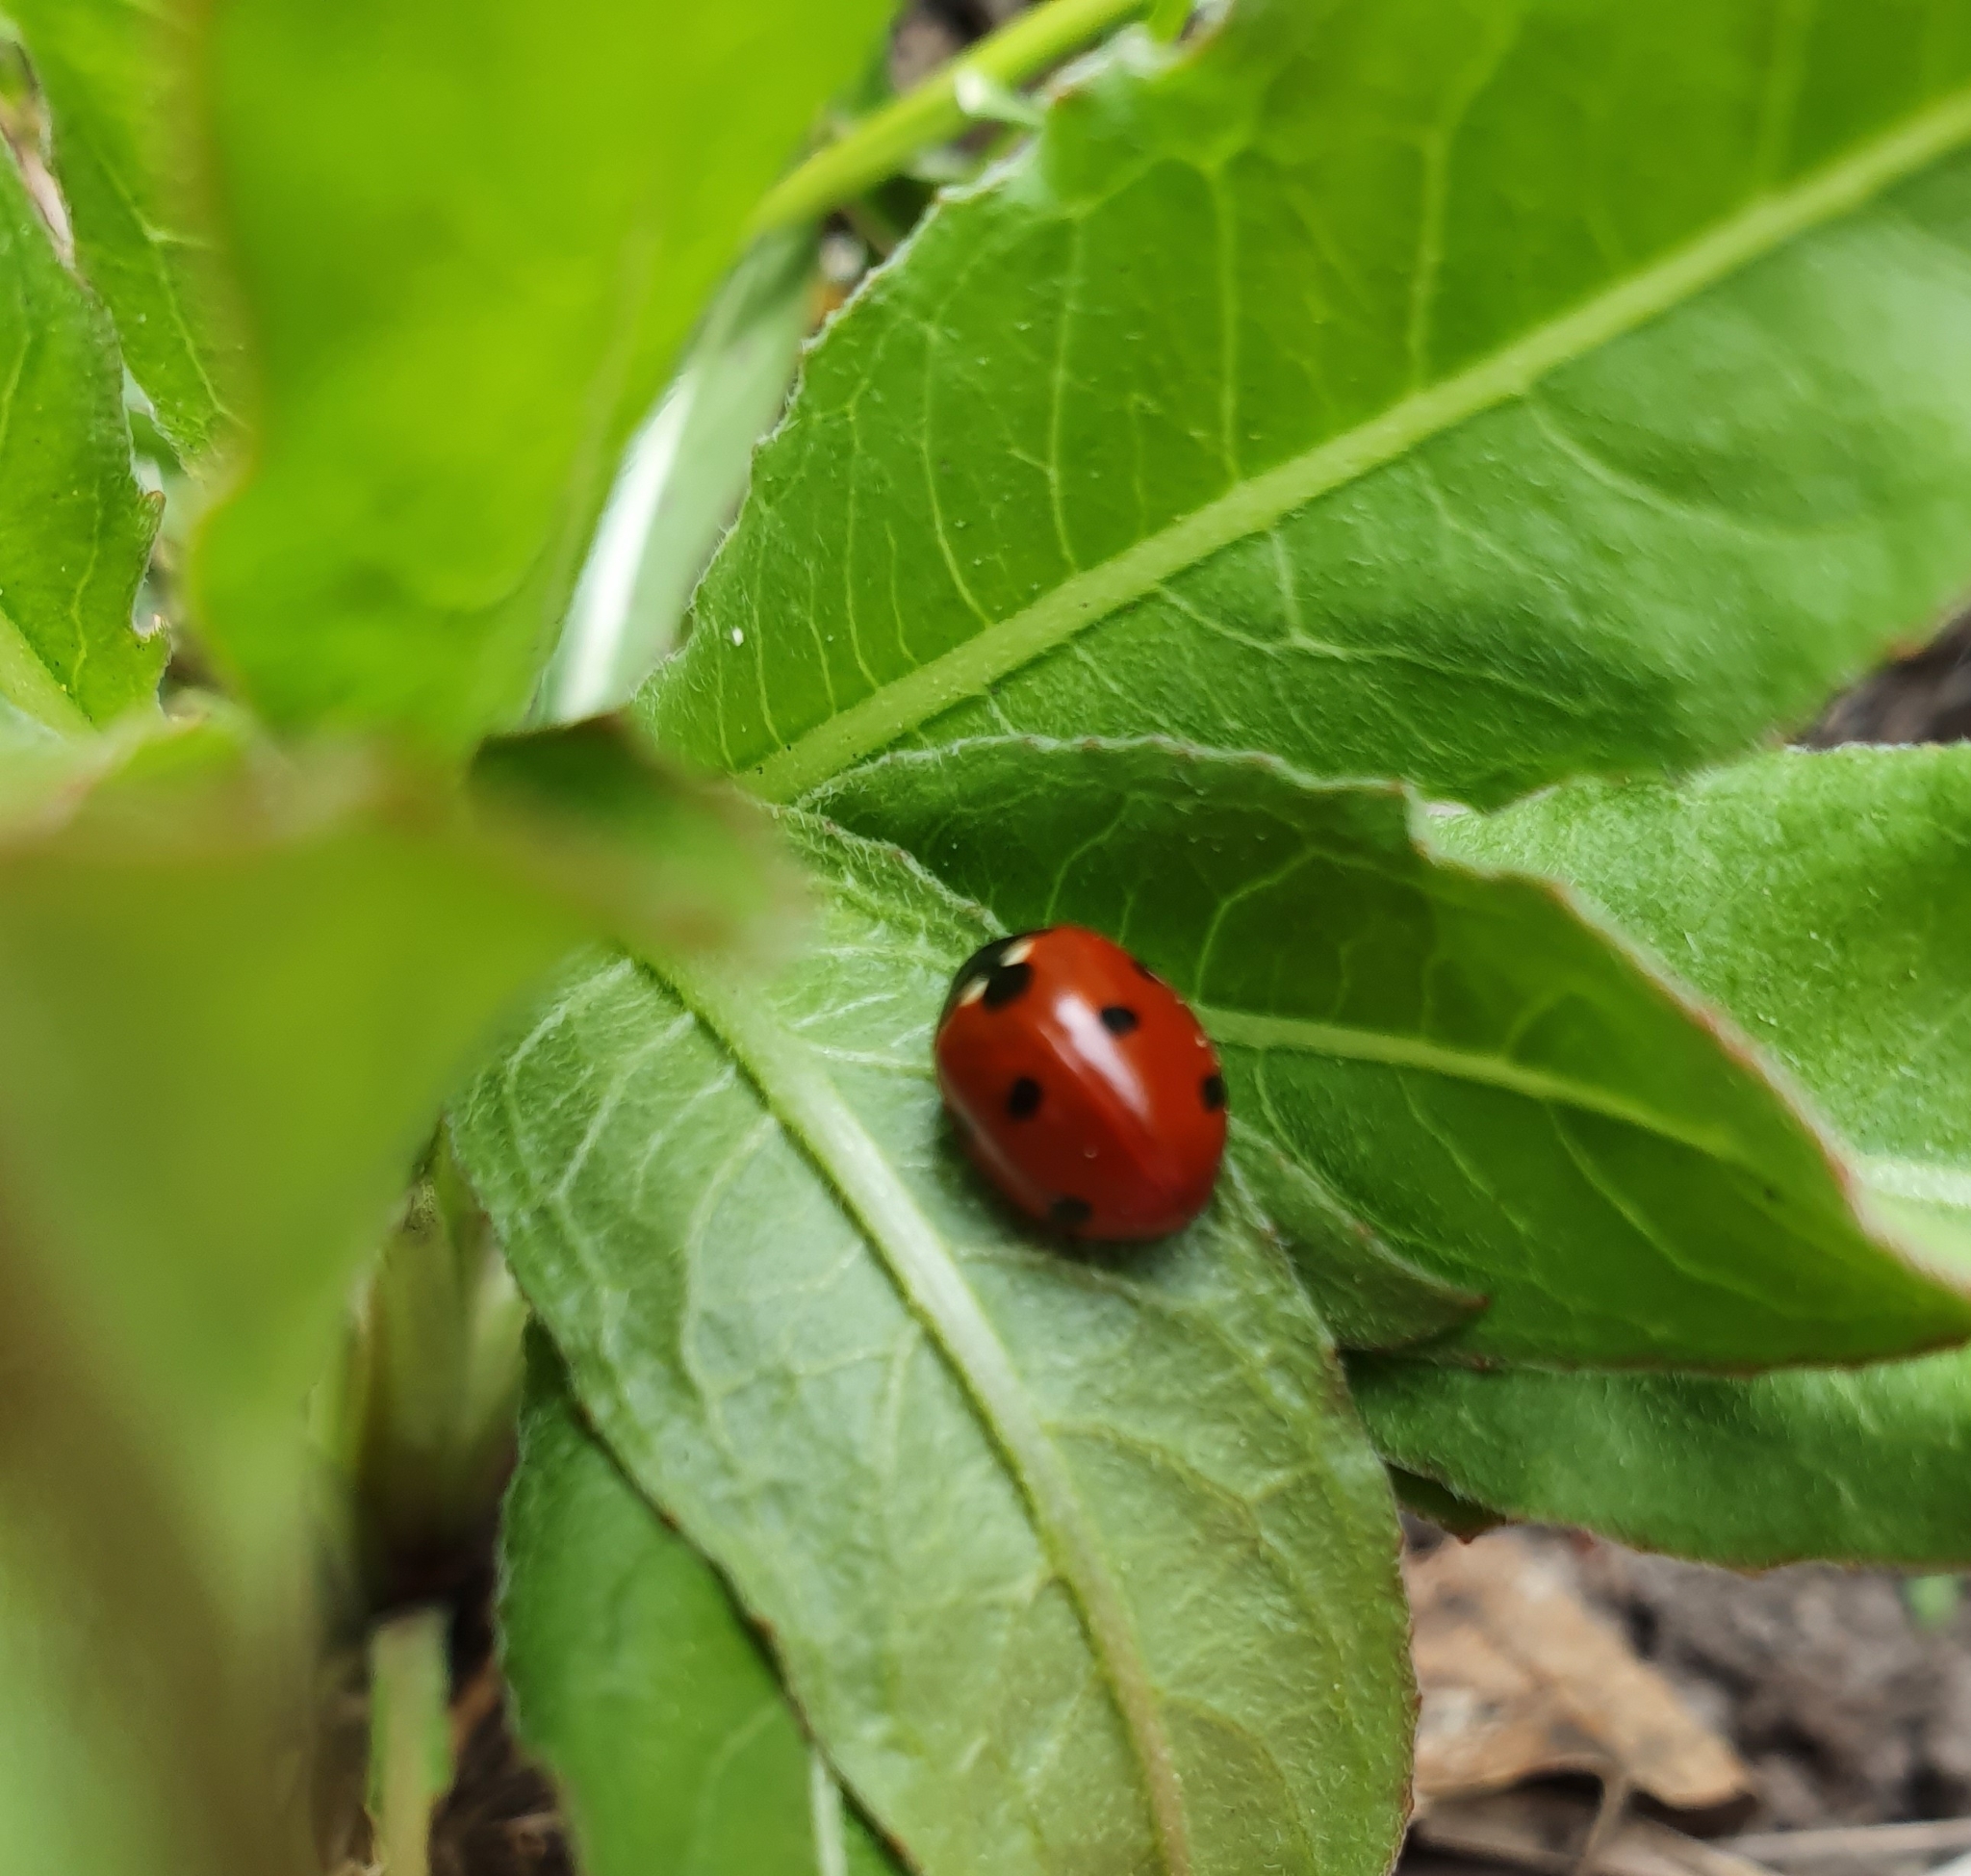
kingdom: Animalia
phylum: Arthropoda
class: Insecta
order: Coleoptera
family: Coccinellidae
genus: Coccinella
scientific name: Coccinella septempunctata
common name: Sevenspotted lady beetle
